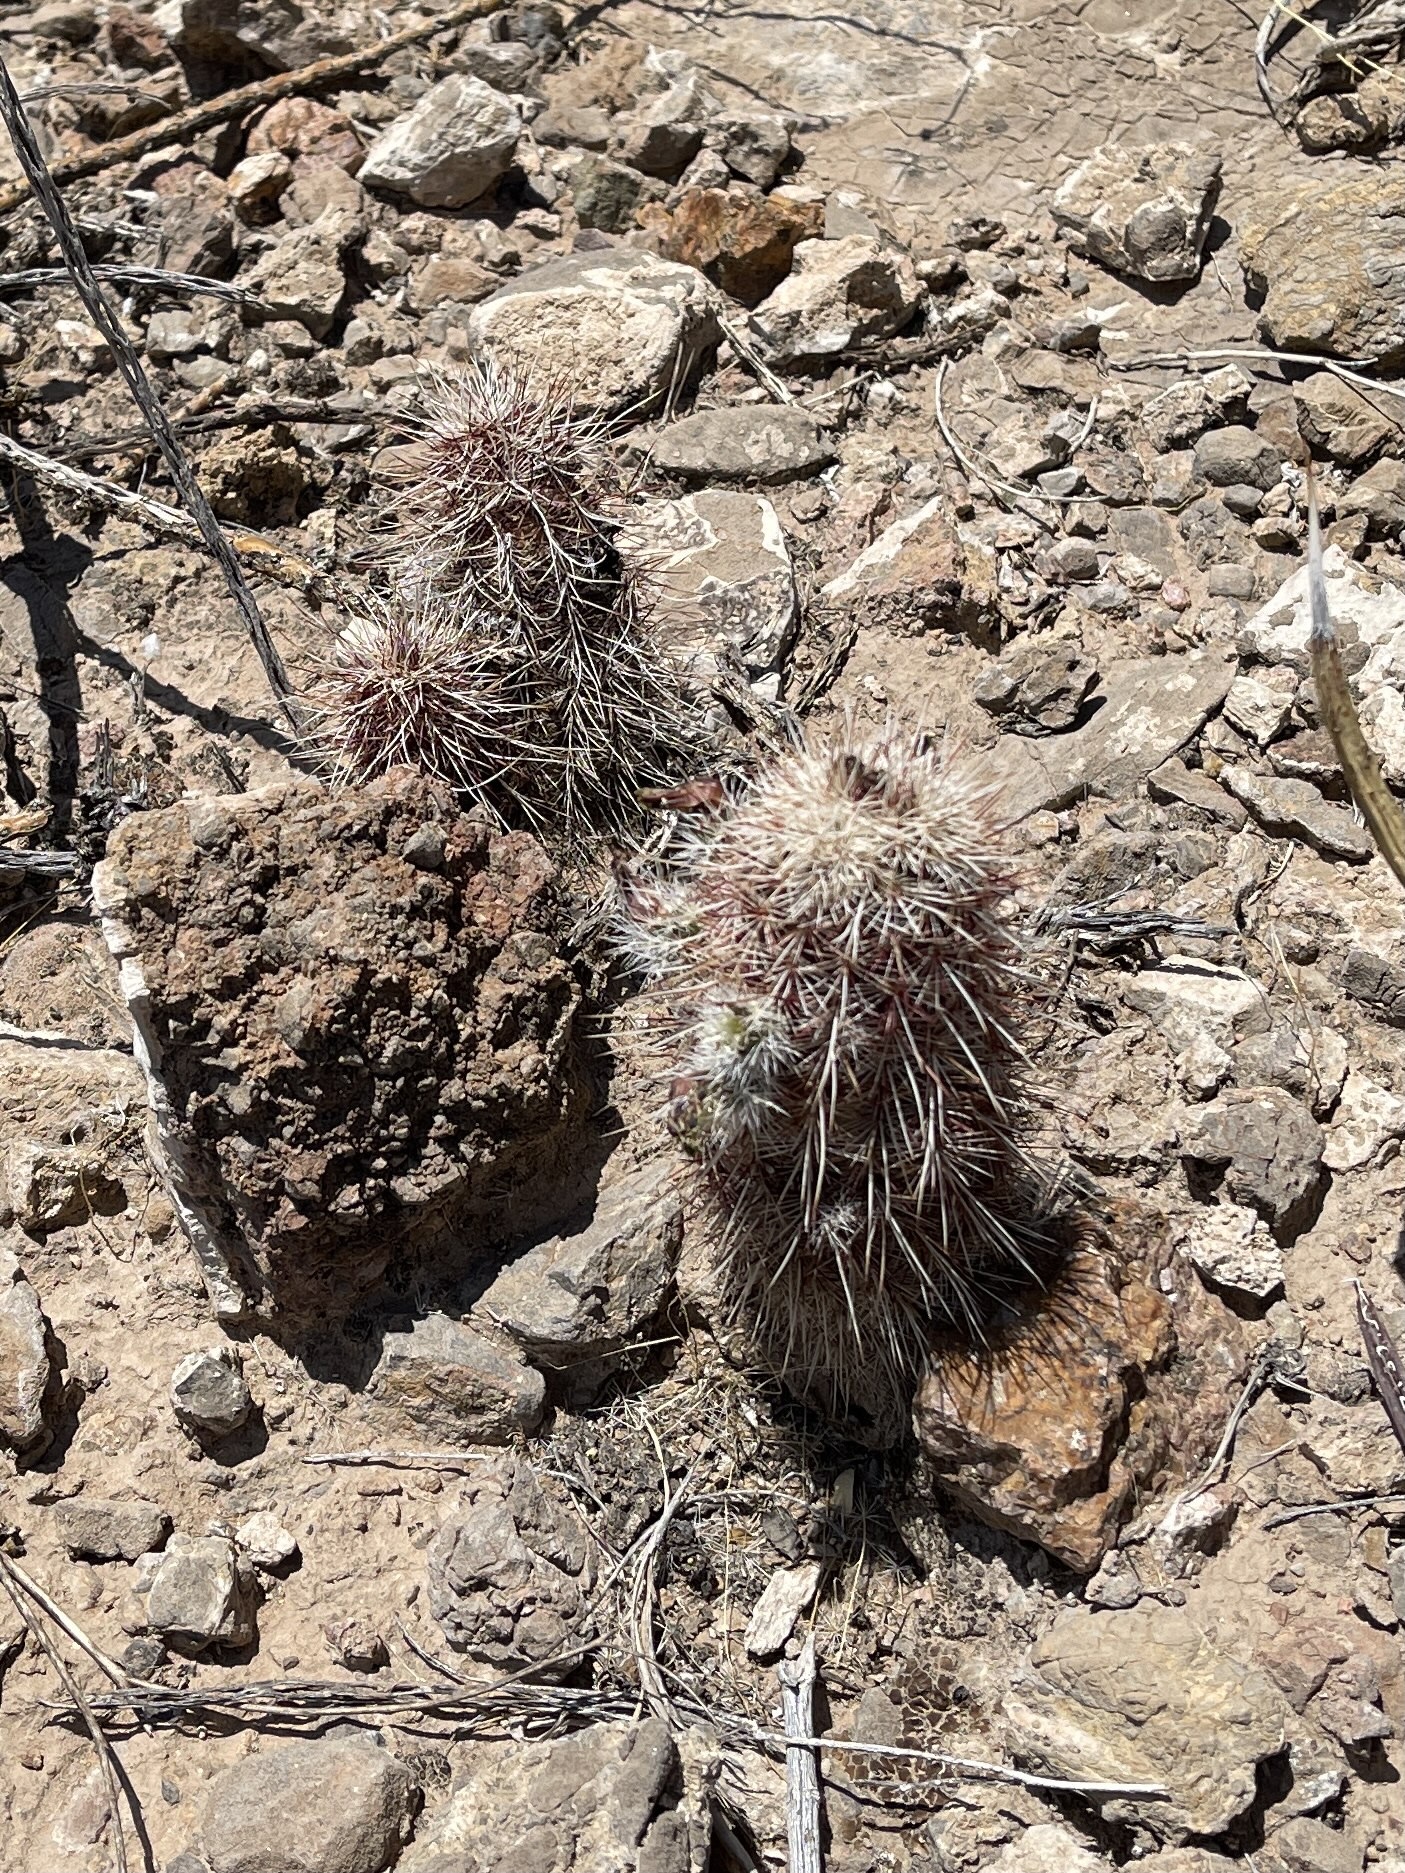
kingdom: Plantae
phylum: Tracheophyta
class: Magnoliopsida
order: Caryophyllales
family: Cactaceae
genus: Echinocereus
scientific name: Echinocereus viridiflorus
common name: Nylon hedgehog cactus
